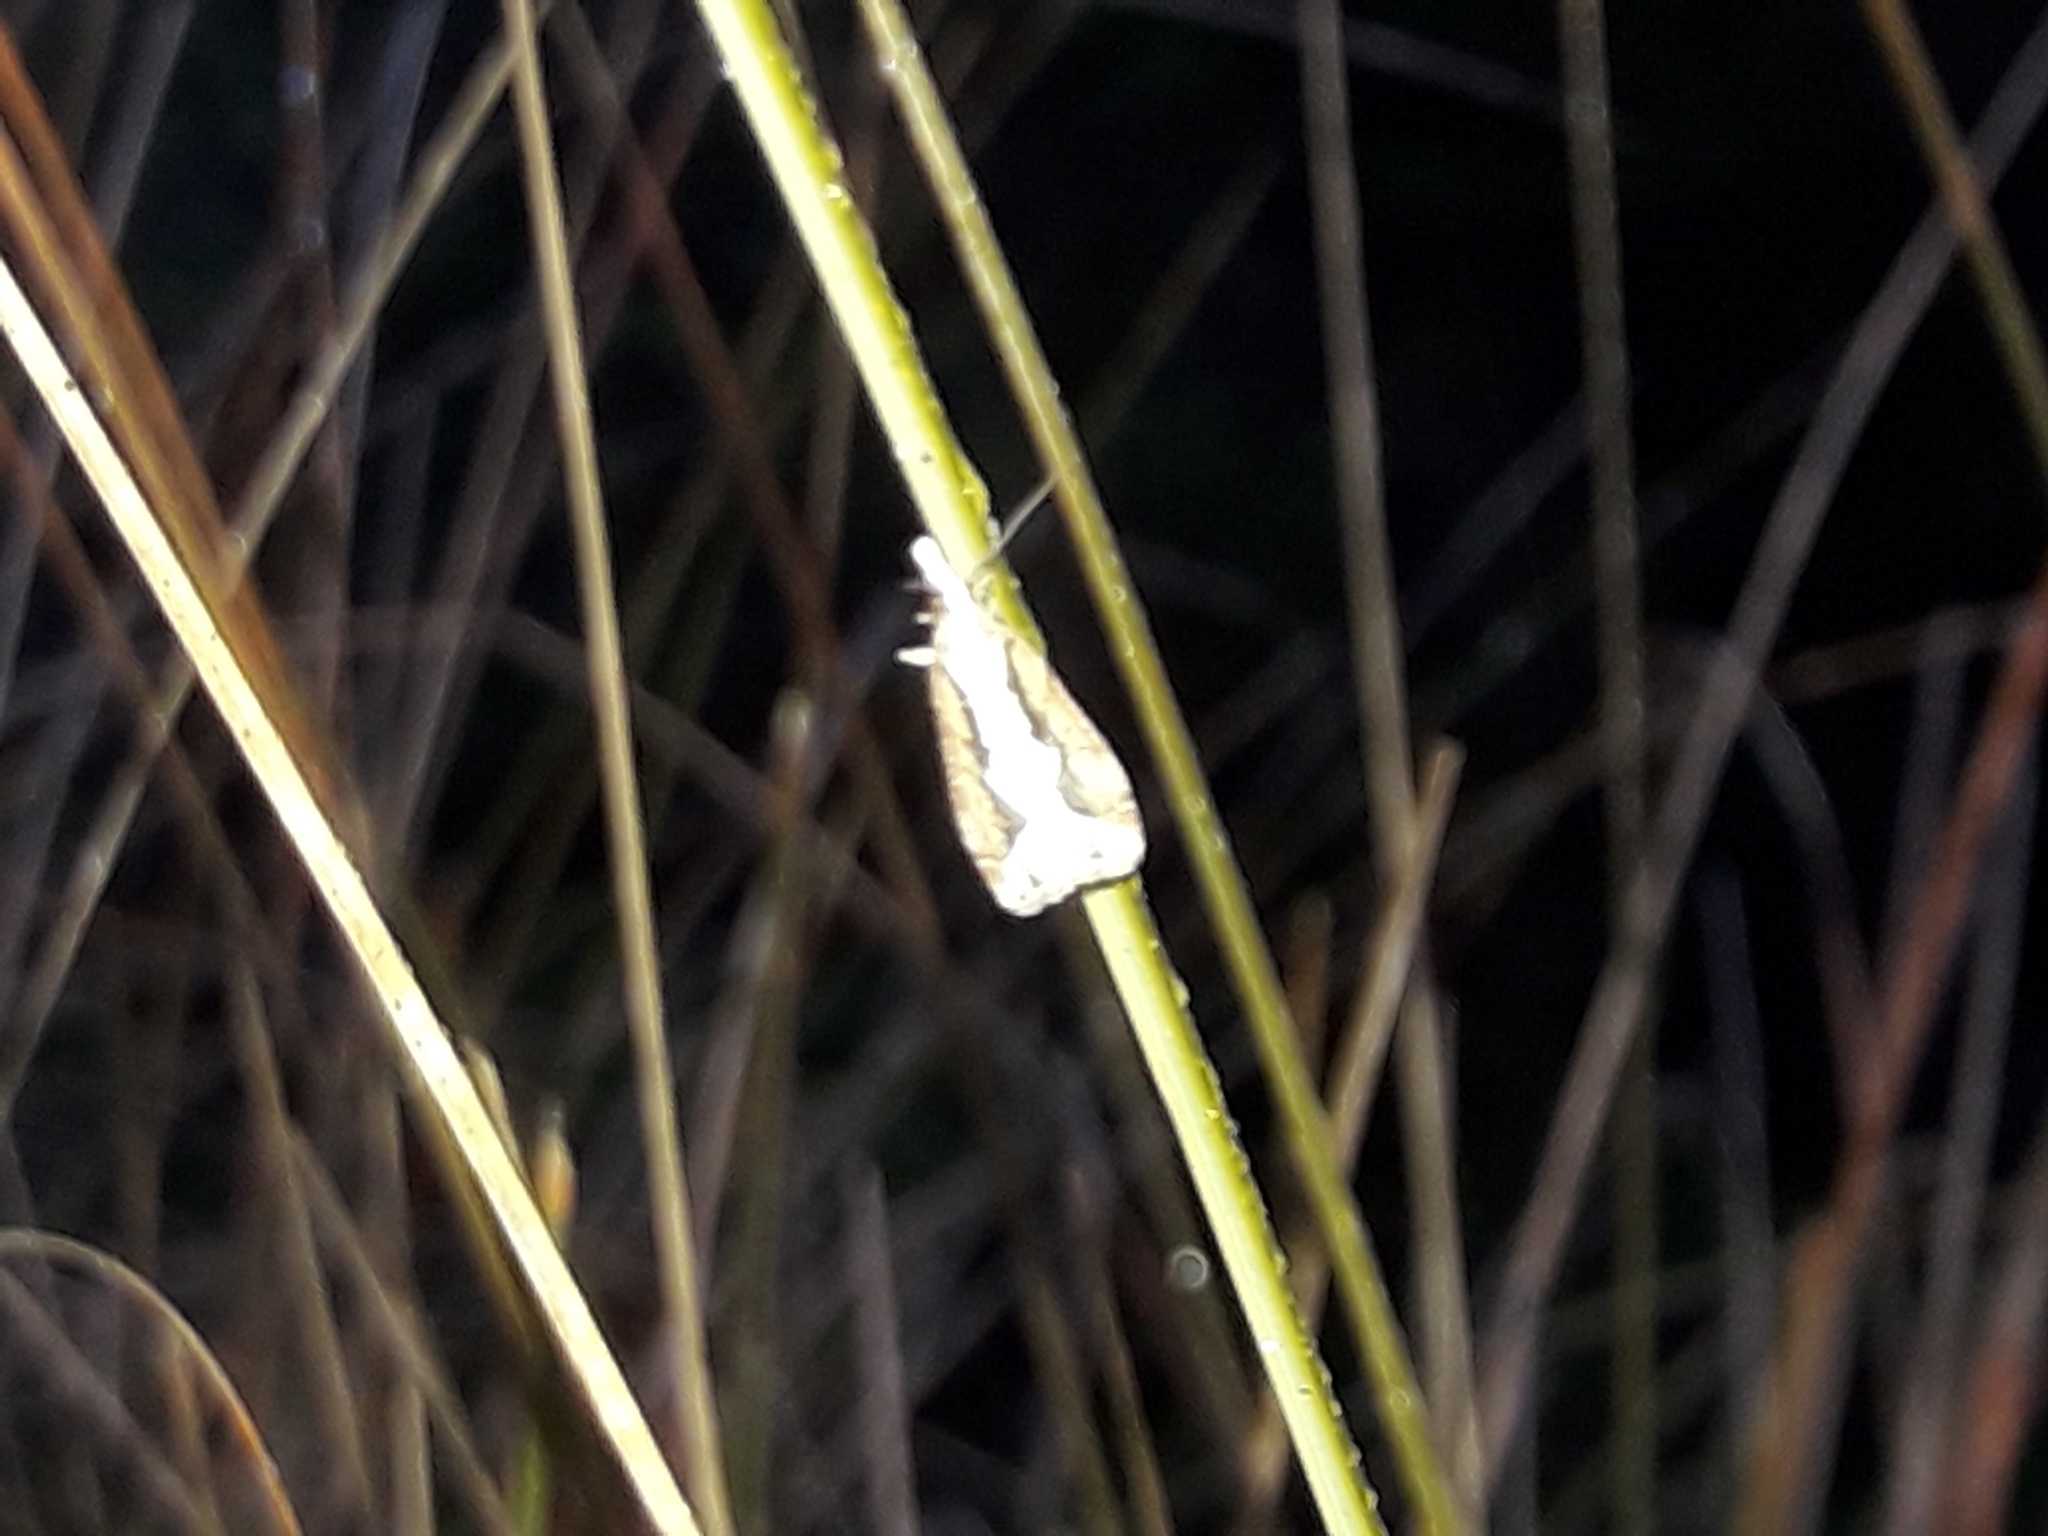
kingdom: Animalia
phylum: Arthropoda
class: Insecta
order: Lepidoptera
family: Crambidae
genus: Eudonia
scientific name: Eudonia steropaea
